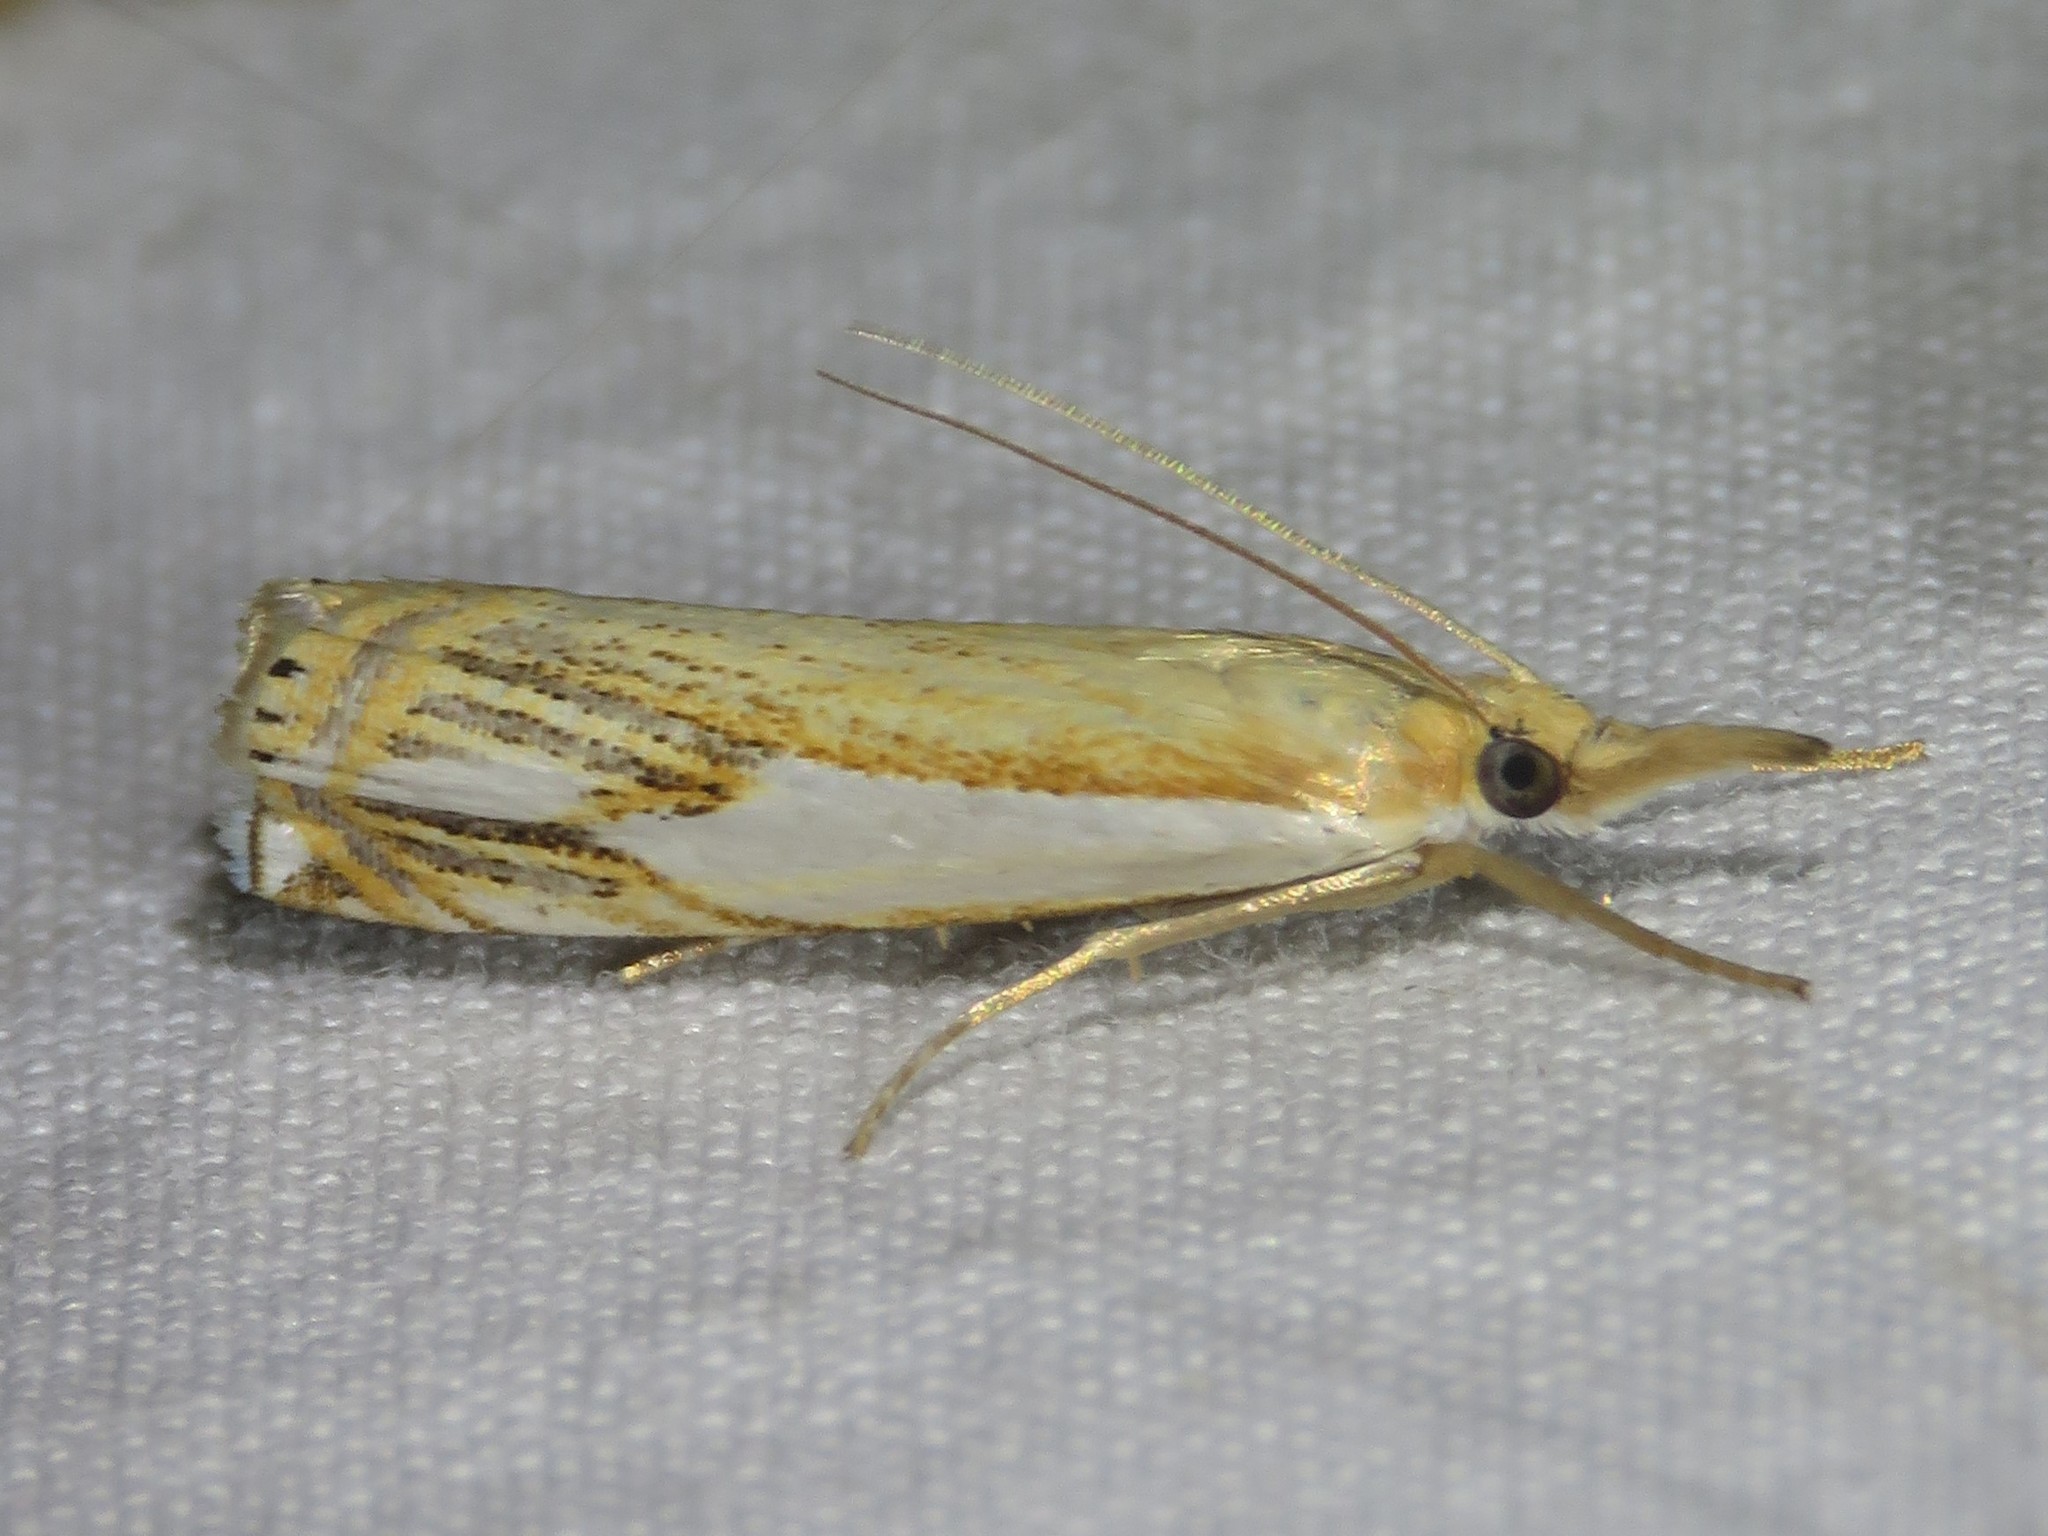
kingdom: Animalia
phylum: Arthropoda
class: Insecta
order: Lepidoptera
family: Crambidae
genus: Crambus
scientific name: Crambus agitatellus
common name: Double-banded grass-veneer
